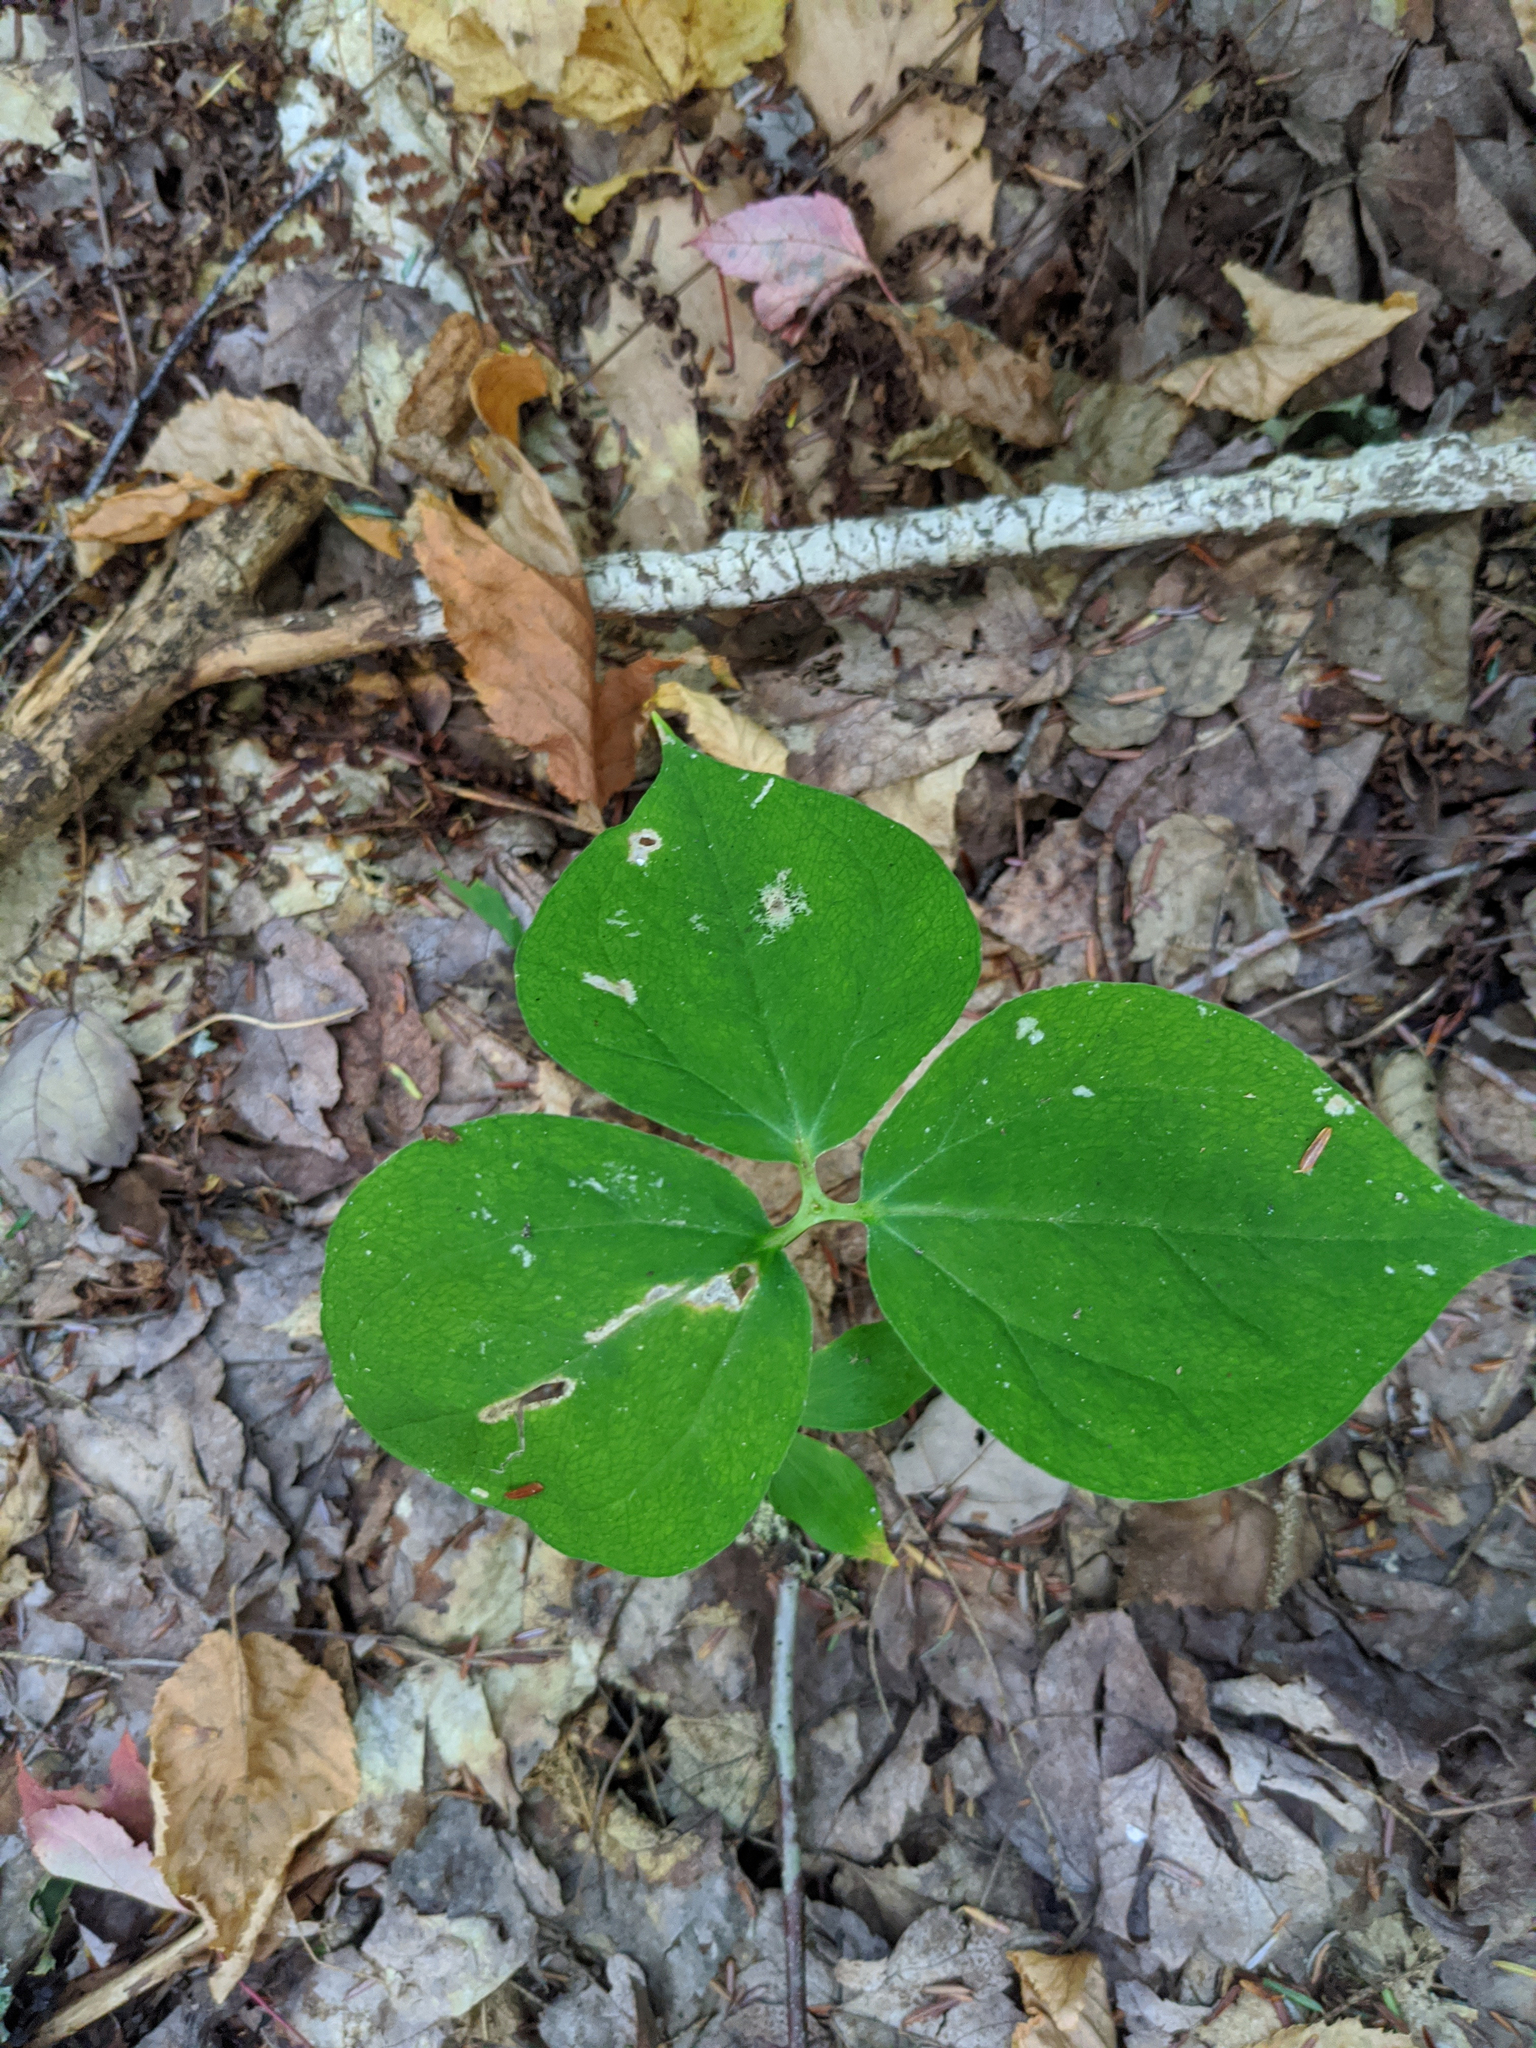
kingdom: Plantae
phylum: Tracheophyta
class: Liliopsida
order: Liliales
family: Melanthiaceae
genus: Trillium
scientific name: Trillium undulatum
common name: Paint trillium
